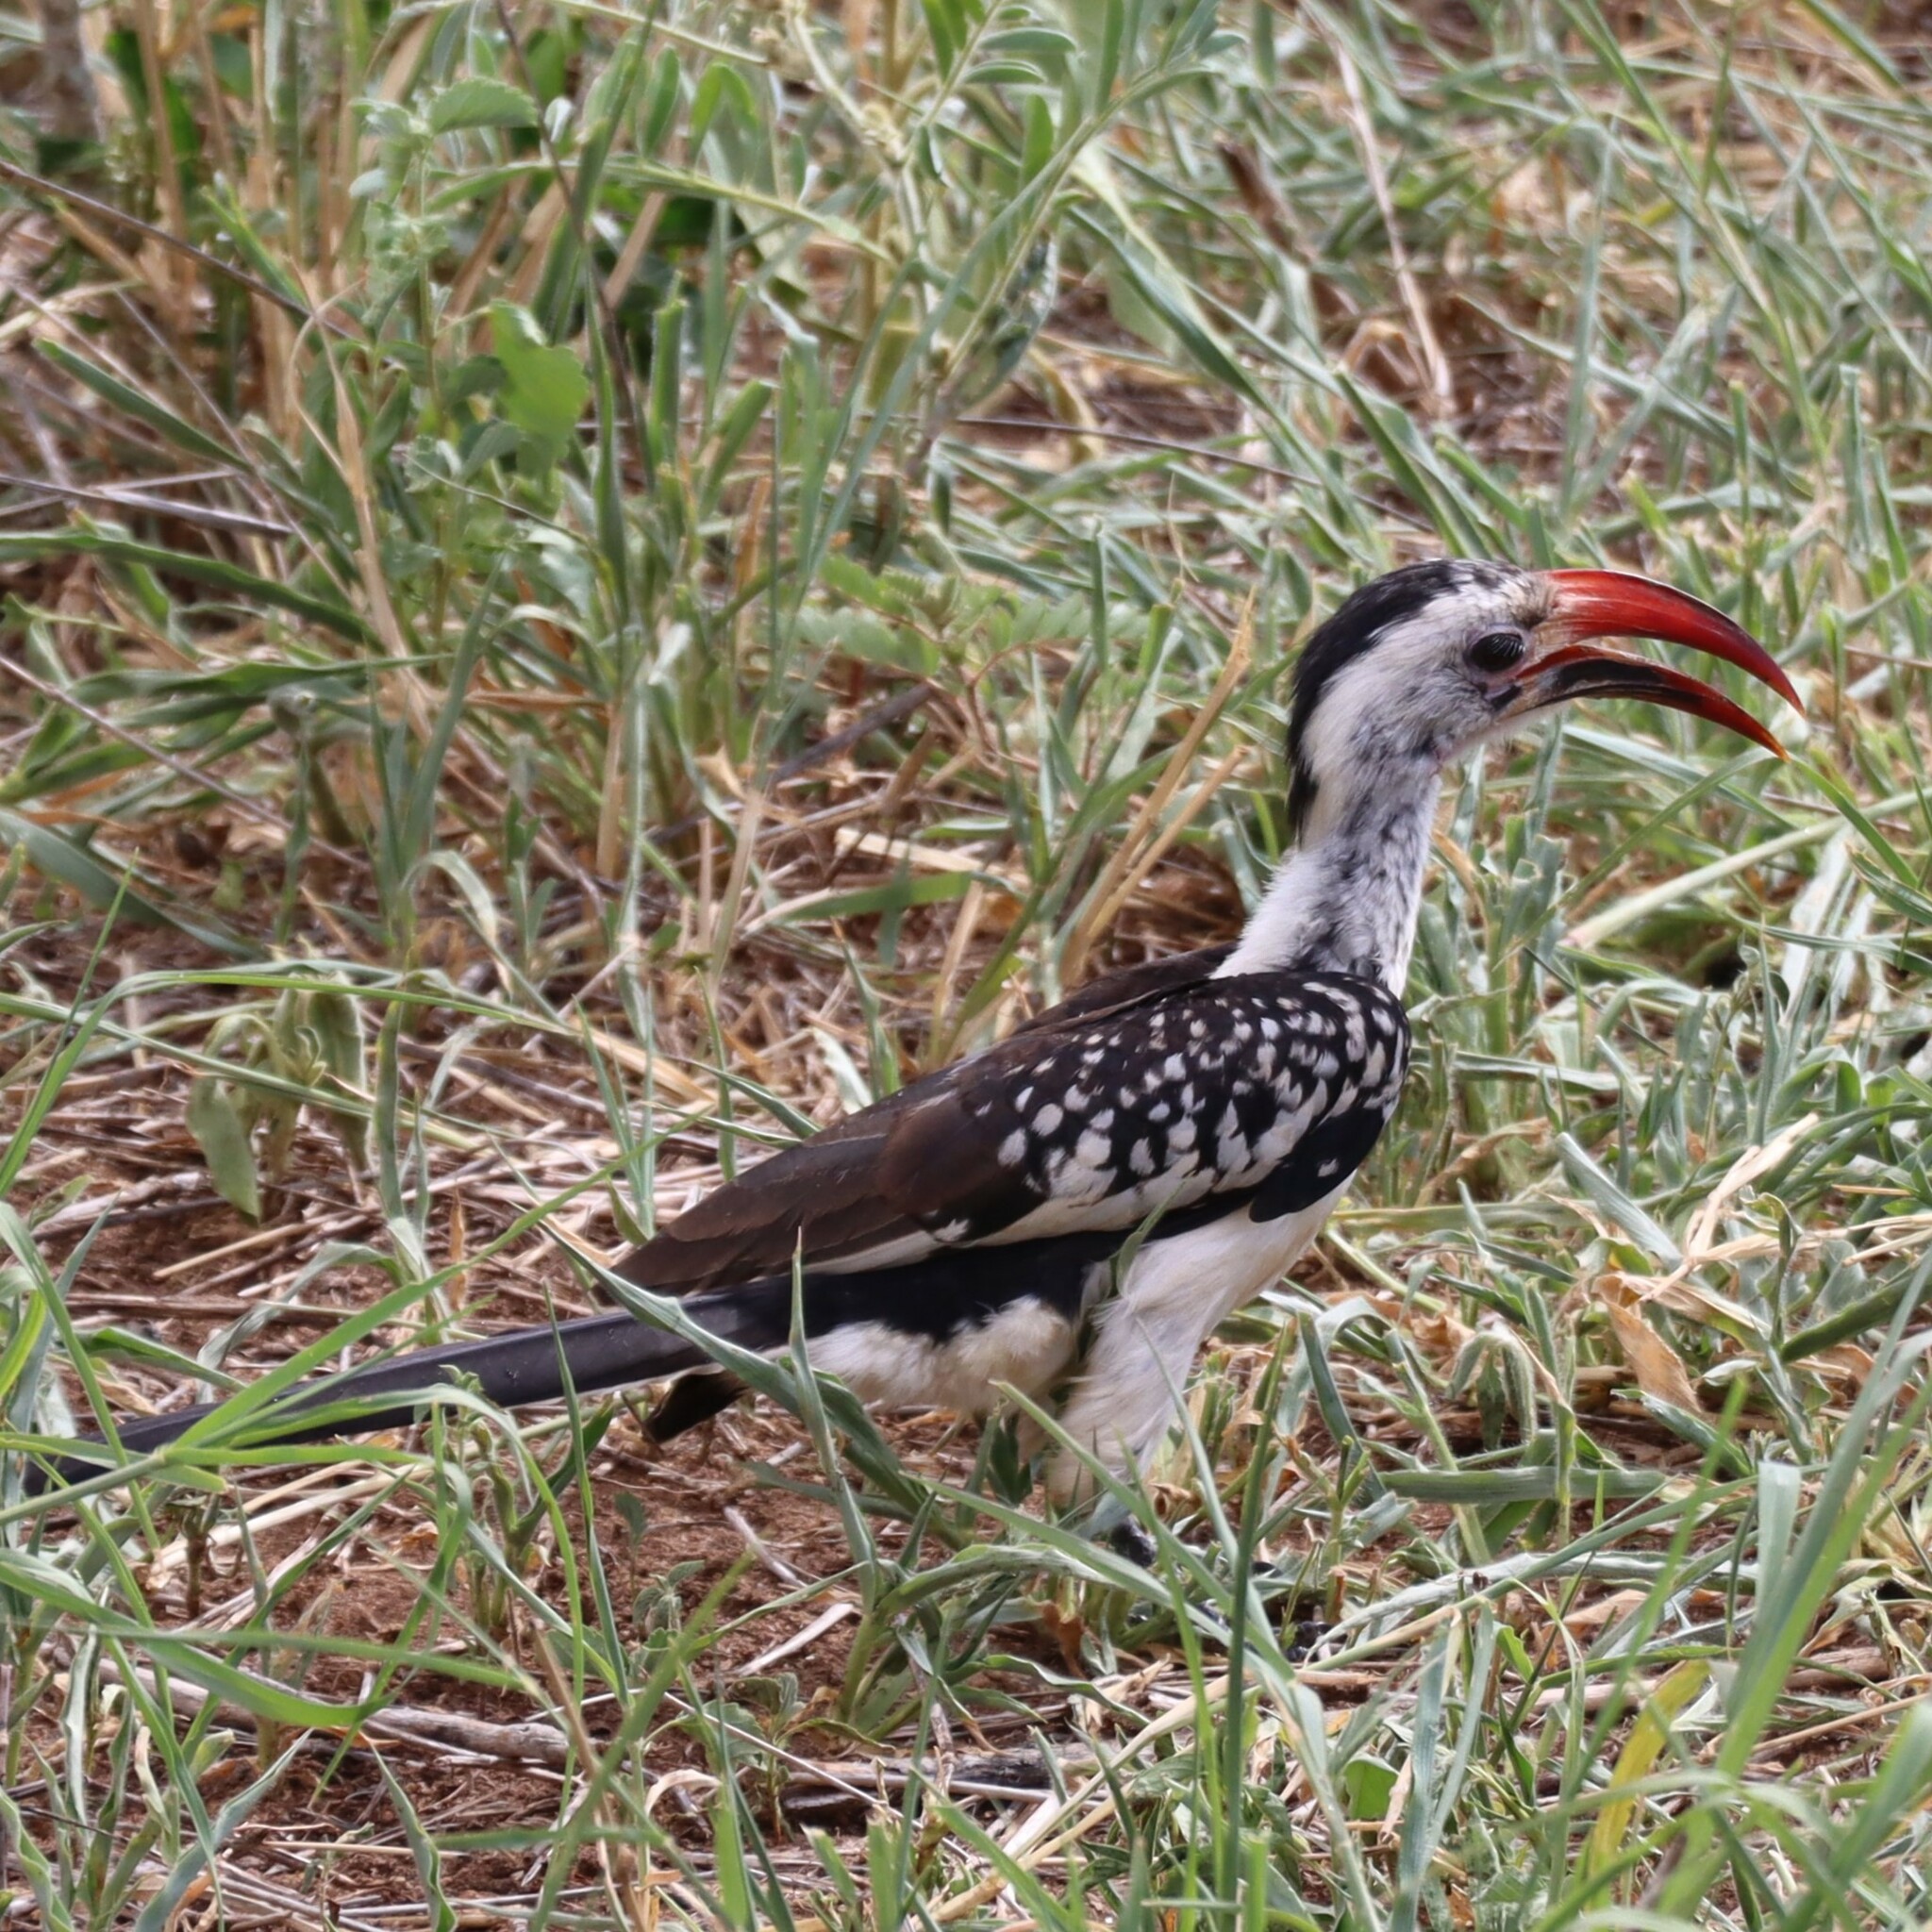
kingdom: Animalia
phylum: Chordata
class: Aves
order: Bucerotiformes
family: Bucerotidae
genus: Tockus
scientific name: Tockus erythrorhynchus
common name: Northern red-billed hornbill
